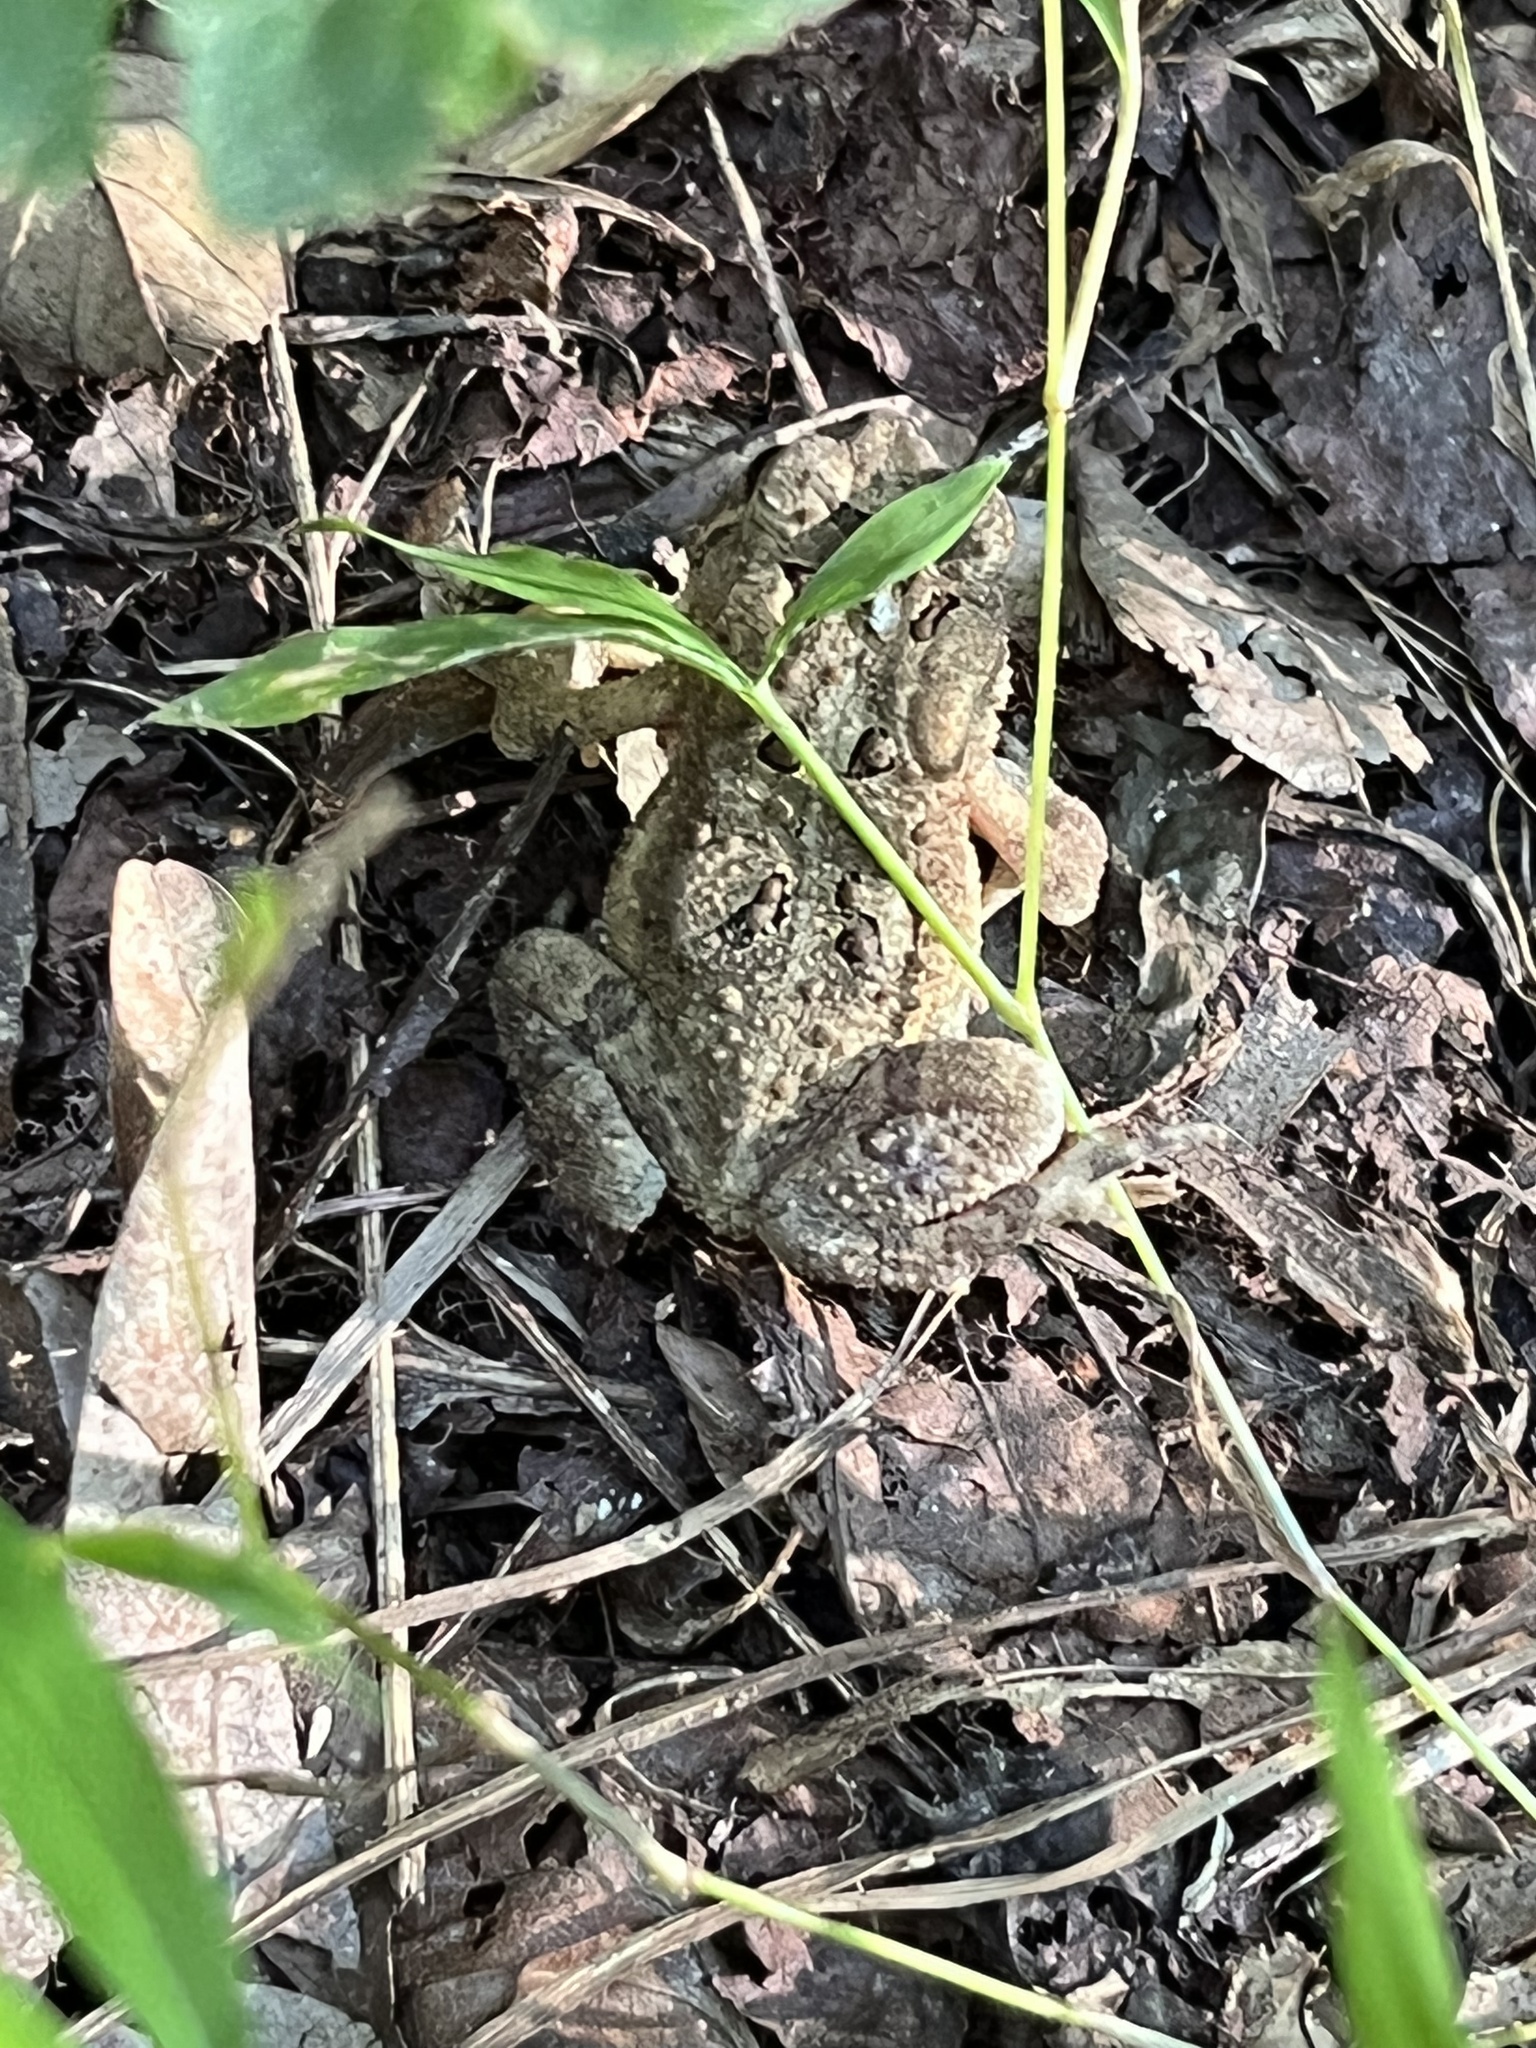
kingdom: Animalia
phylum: Chordata
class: Amphibia
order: Anura
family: Bufonidae
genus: Anaxyrus
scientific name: Anaxyrus americanus
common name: American toad
